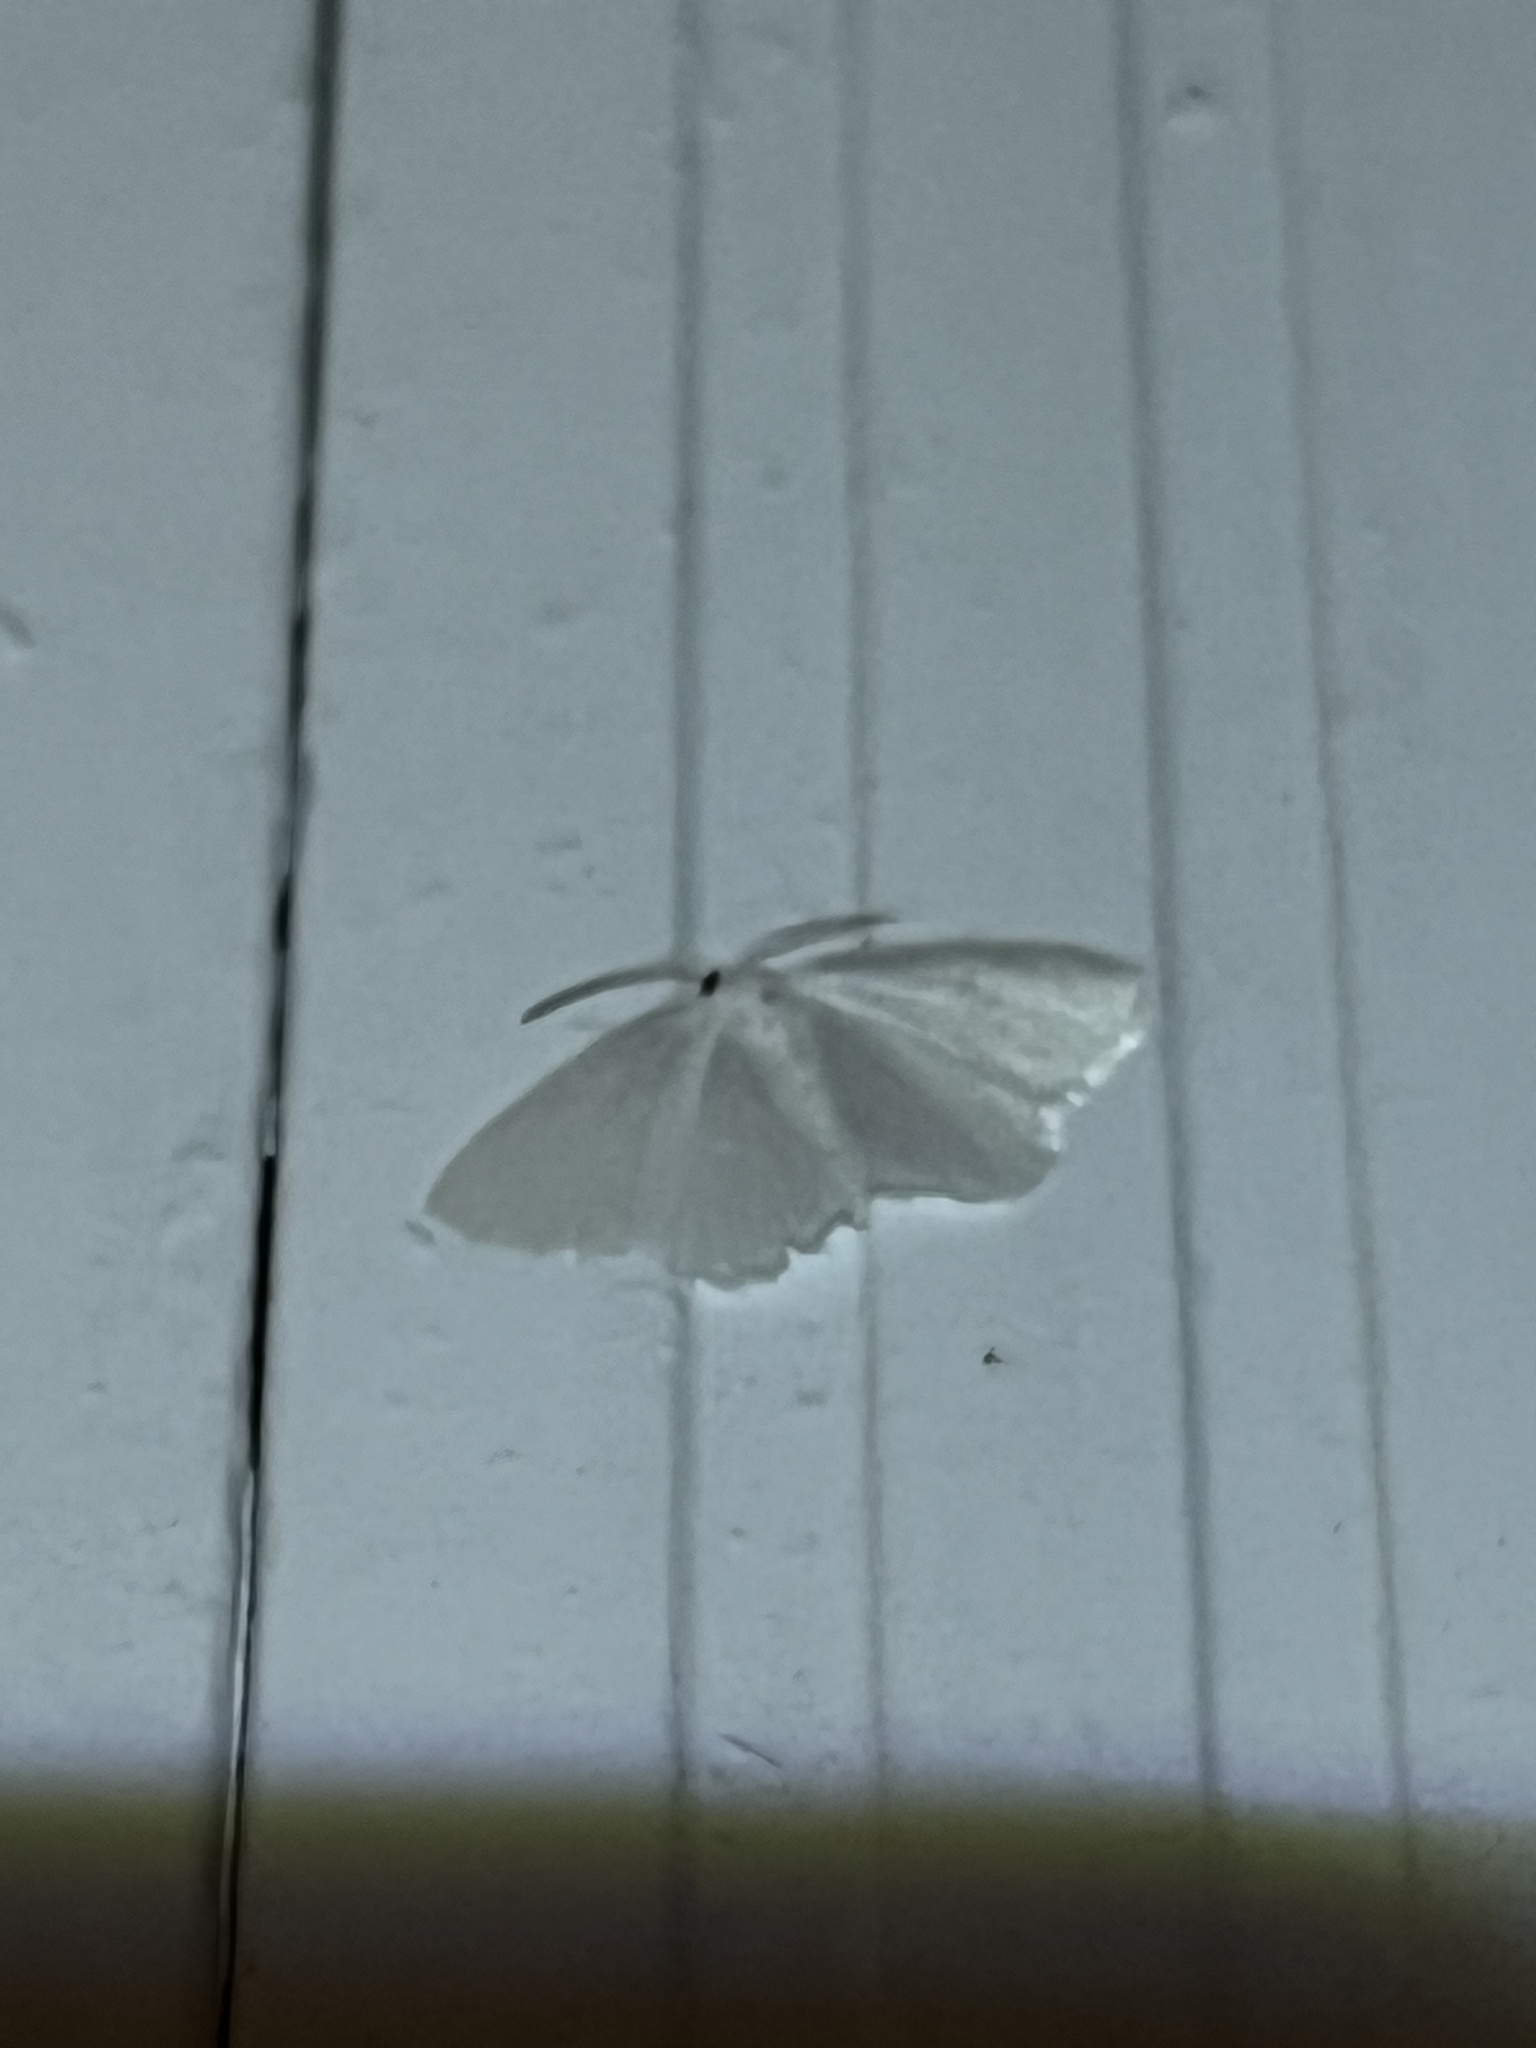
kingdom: Animalia
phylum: Arthropoda
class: Insecta
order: Lepidoptera
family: Geometridae
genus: Lomographa
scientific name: Lomographa vestaliata
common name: White spring moth
